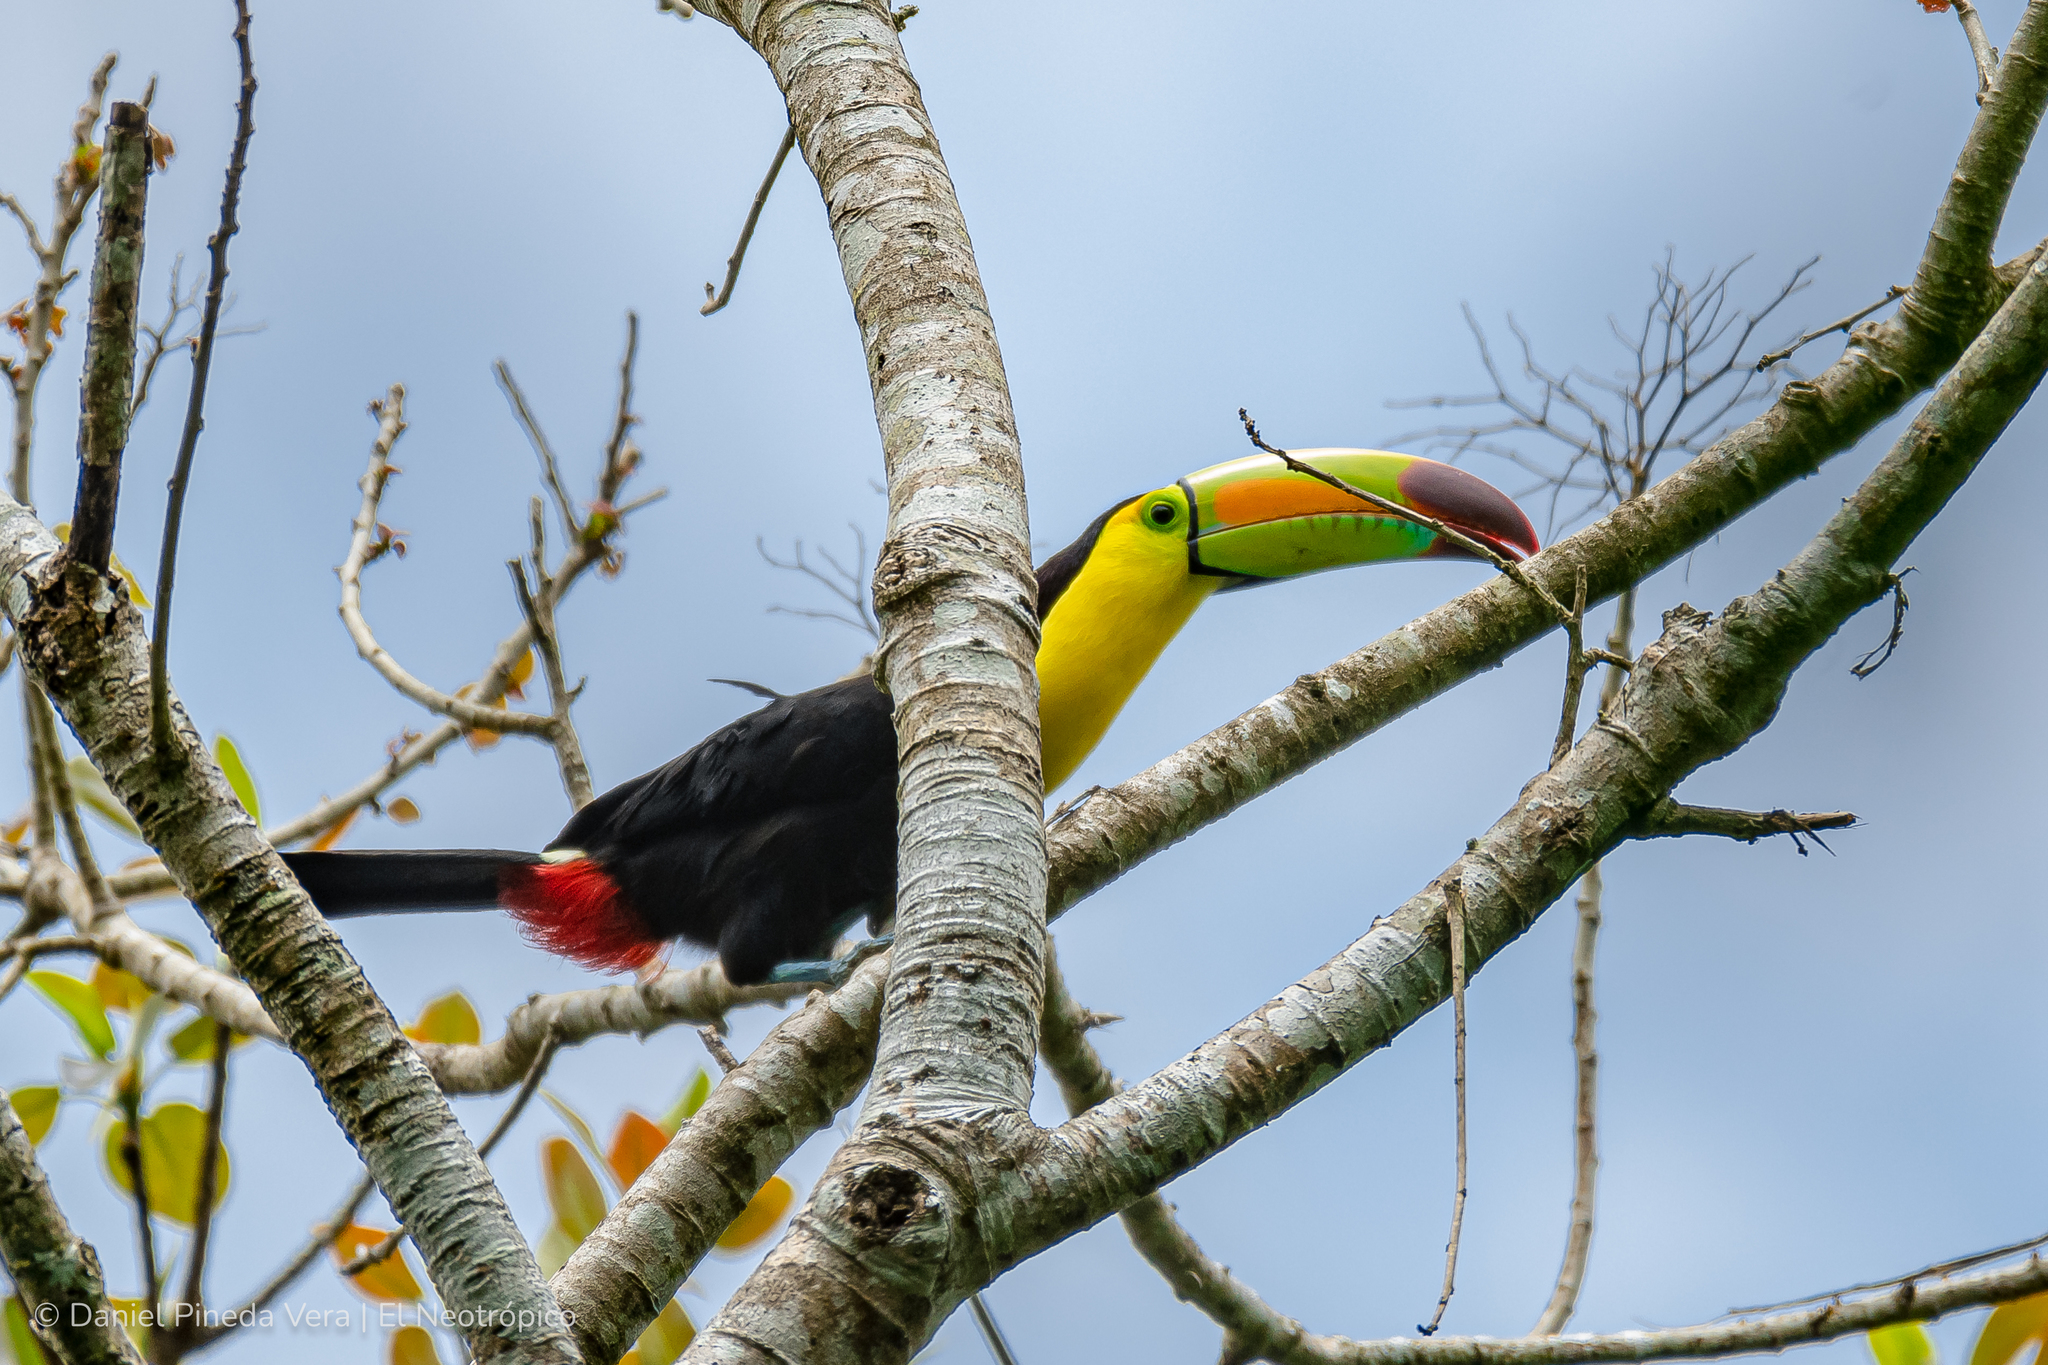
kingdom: Animalia
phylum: Chordata
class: Aves
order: Piciformes
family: Ramphastidae
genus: Ramphastos
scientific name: Ramphastos sulfuratus
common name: Keel-billed toucan
